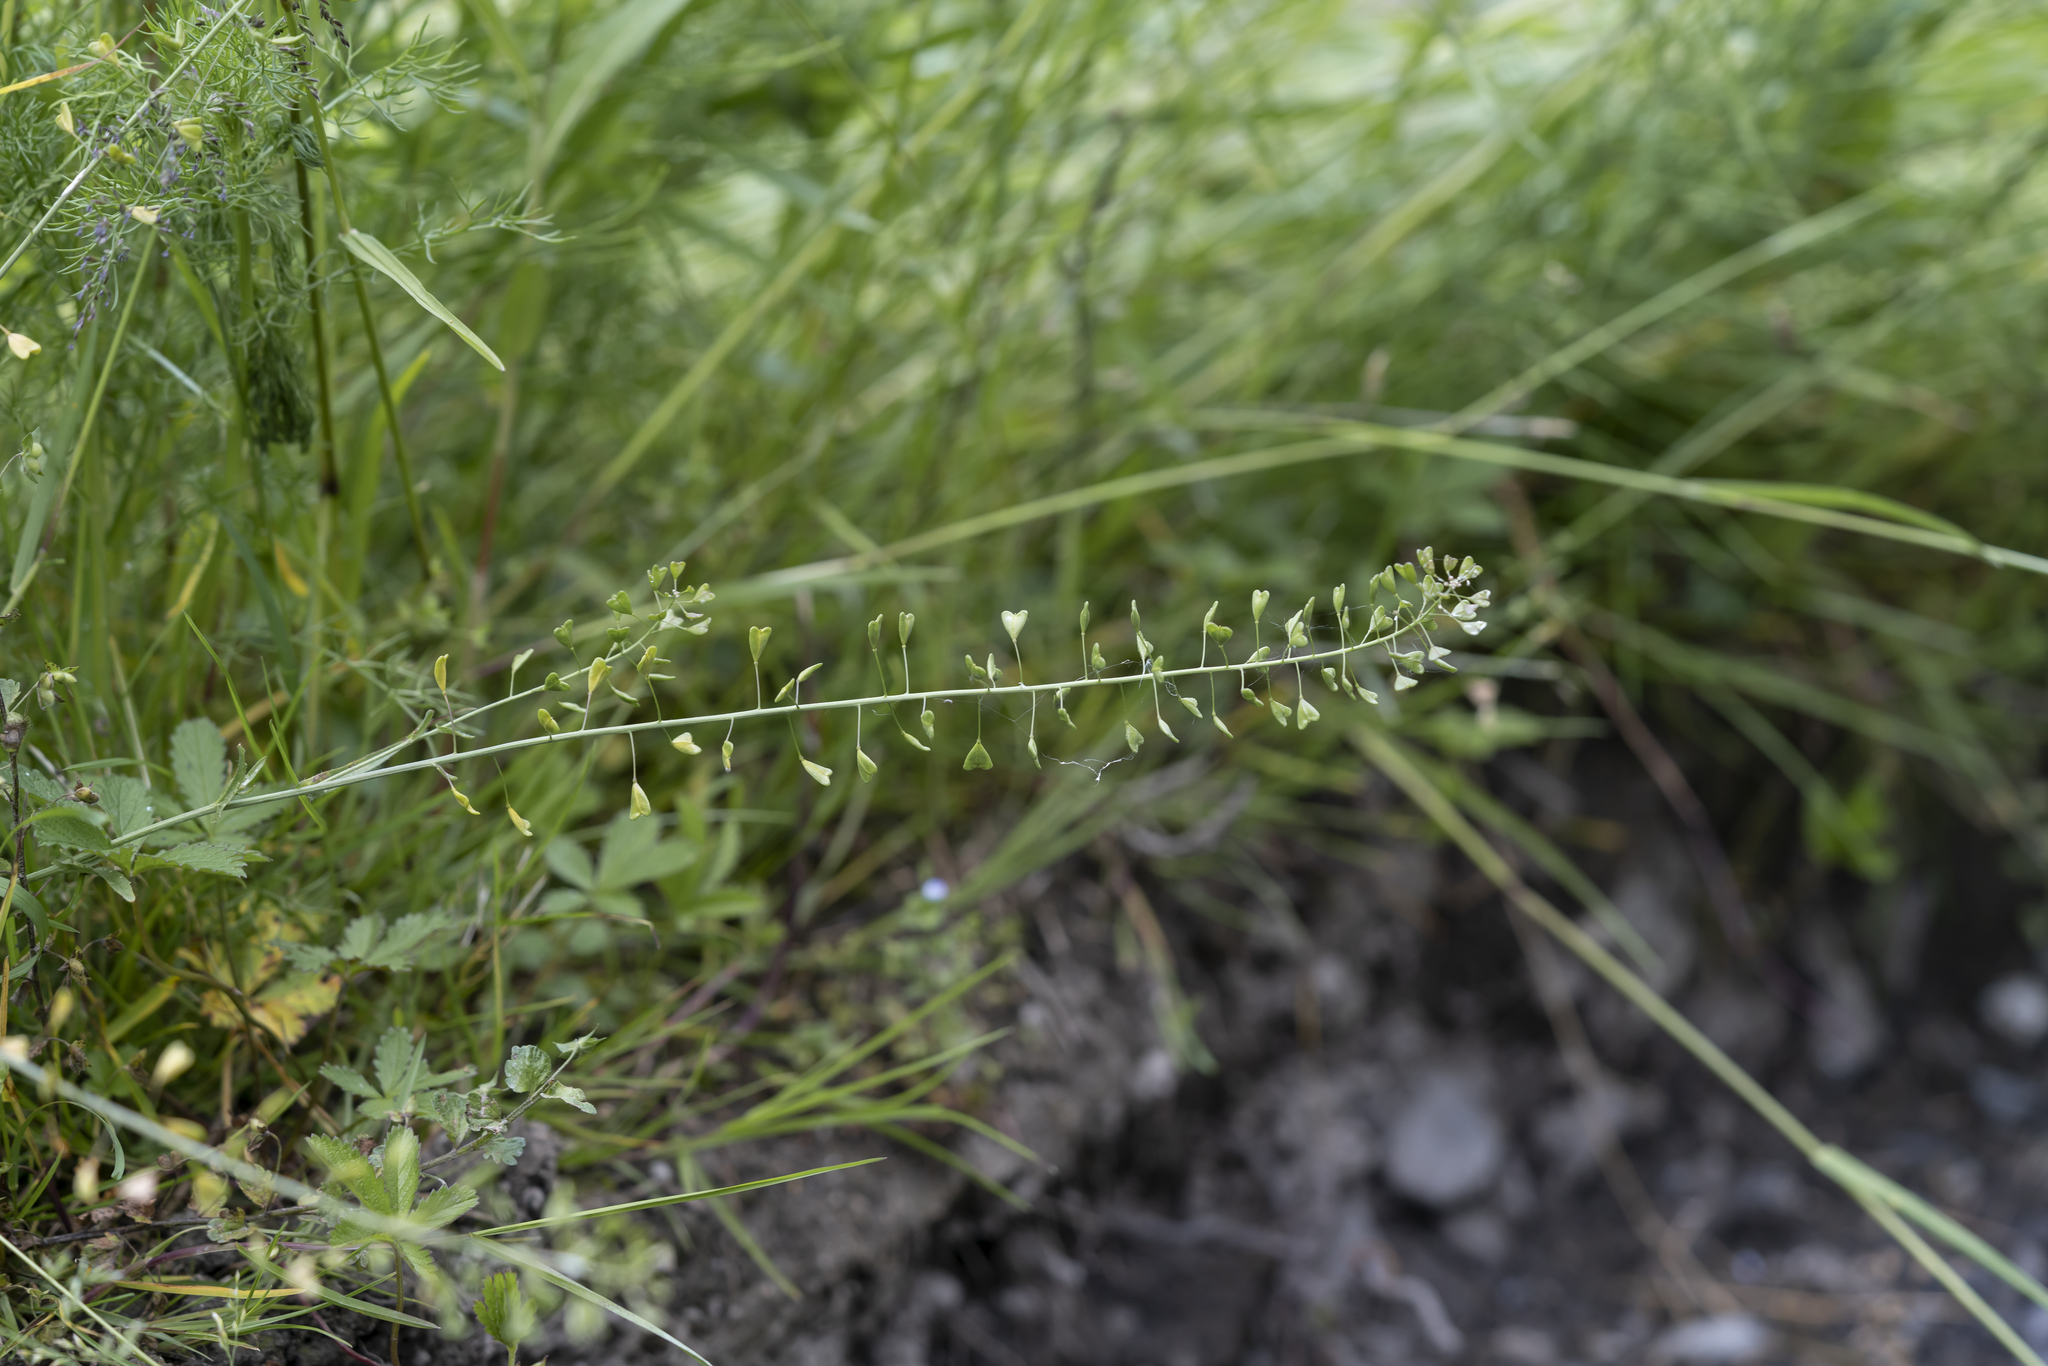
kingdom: Plantae
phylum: Tracheophyta
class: Magnoliopsida
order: Brassicales
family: Brassicaceae
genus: Capsella
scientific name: Capsella bursa-pastoris
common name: Shepherd's purse
